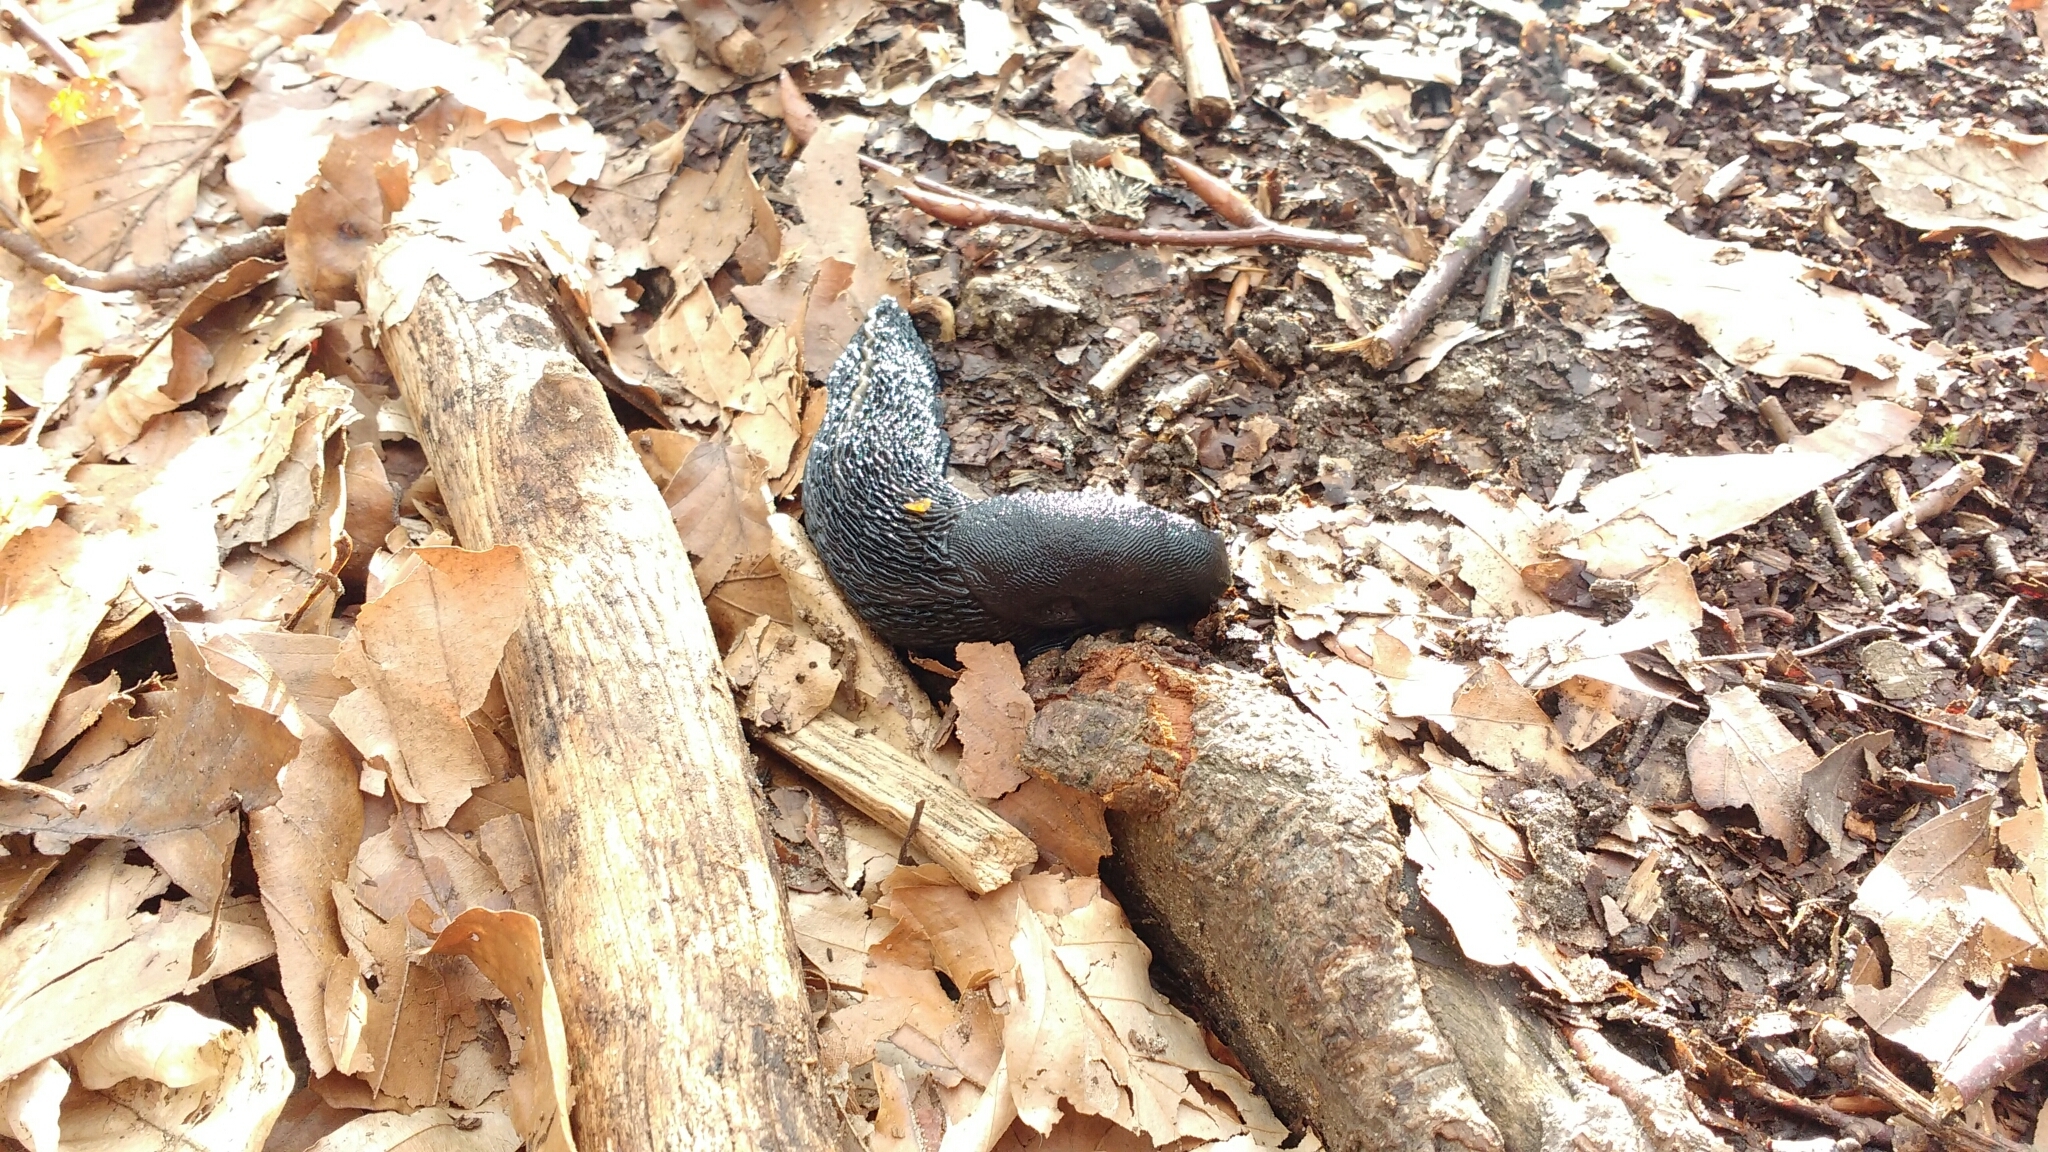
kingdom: Animalia
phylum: Mollusca
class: Gastropoda
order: Stylommatophora
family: Limacidae
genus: Limax
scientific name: Limax cinereoniger
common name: Ash-black slug
